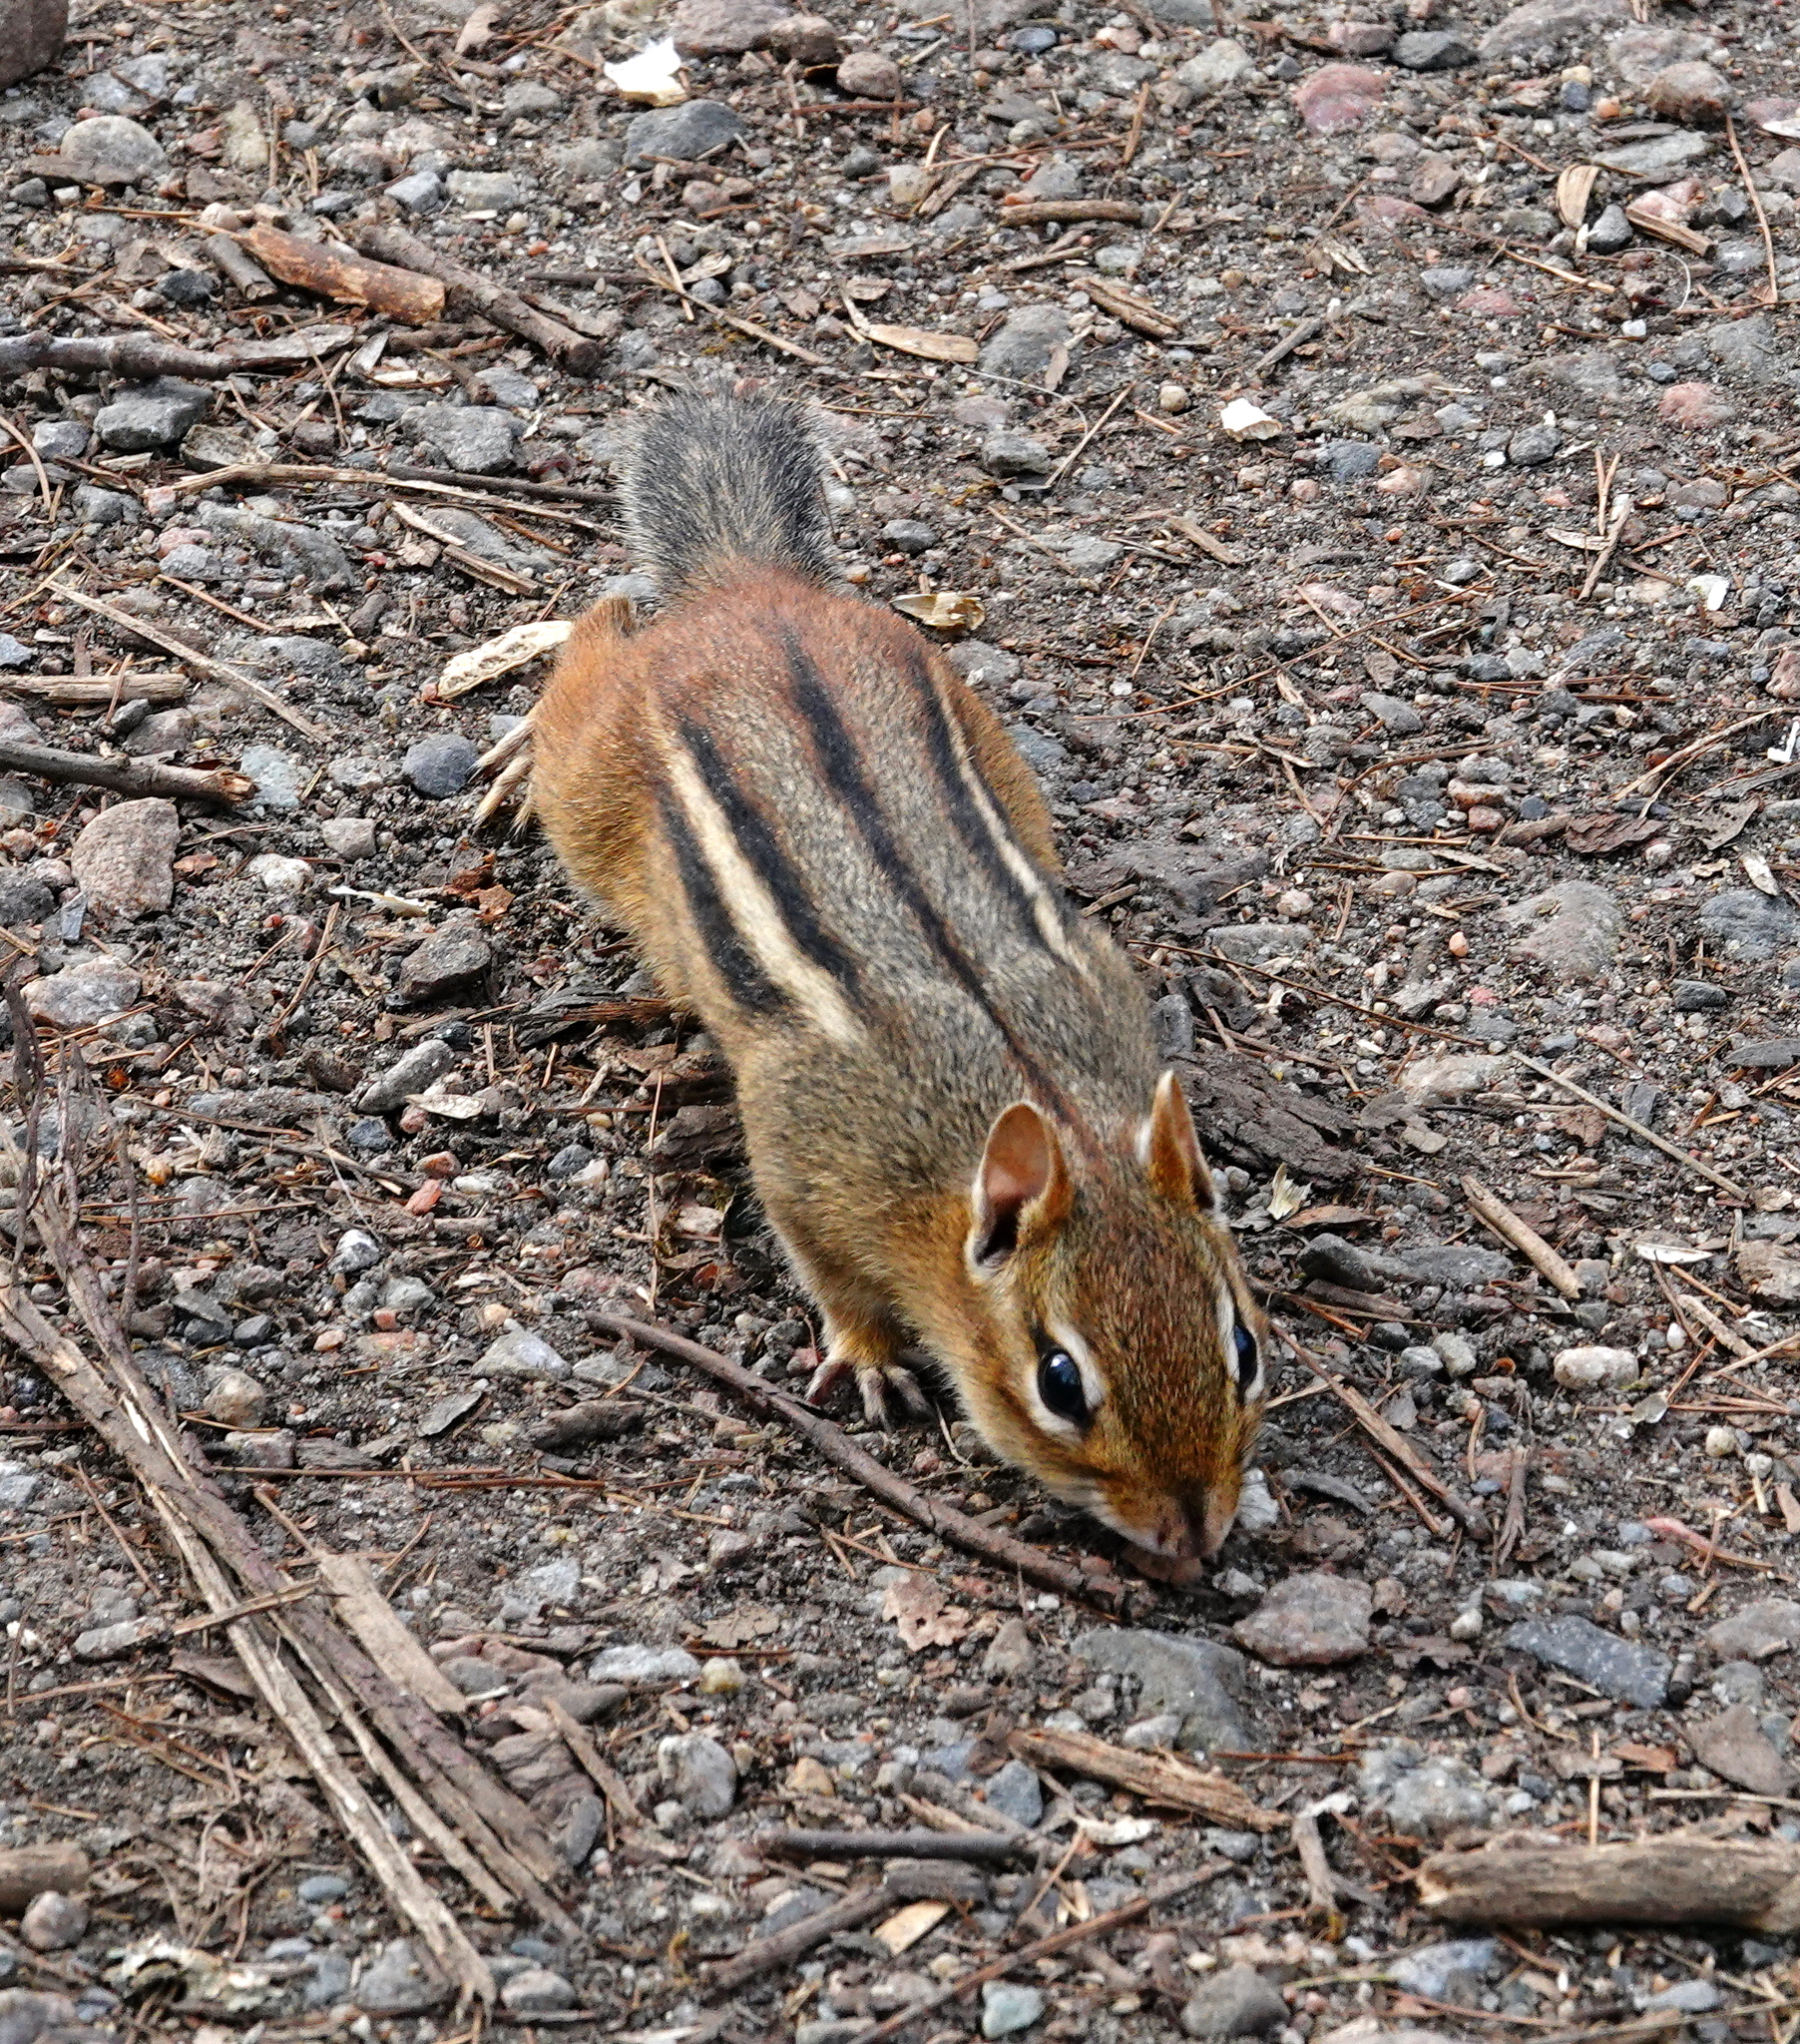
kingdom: Animalia
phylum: Chordata
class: Mammalia
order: Rodentia
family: Sciuridae
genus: Tamias
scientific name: Tamias striatus
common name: Eastern chipmunk
